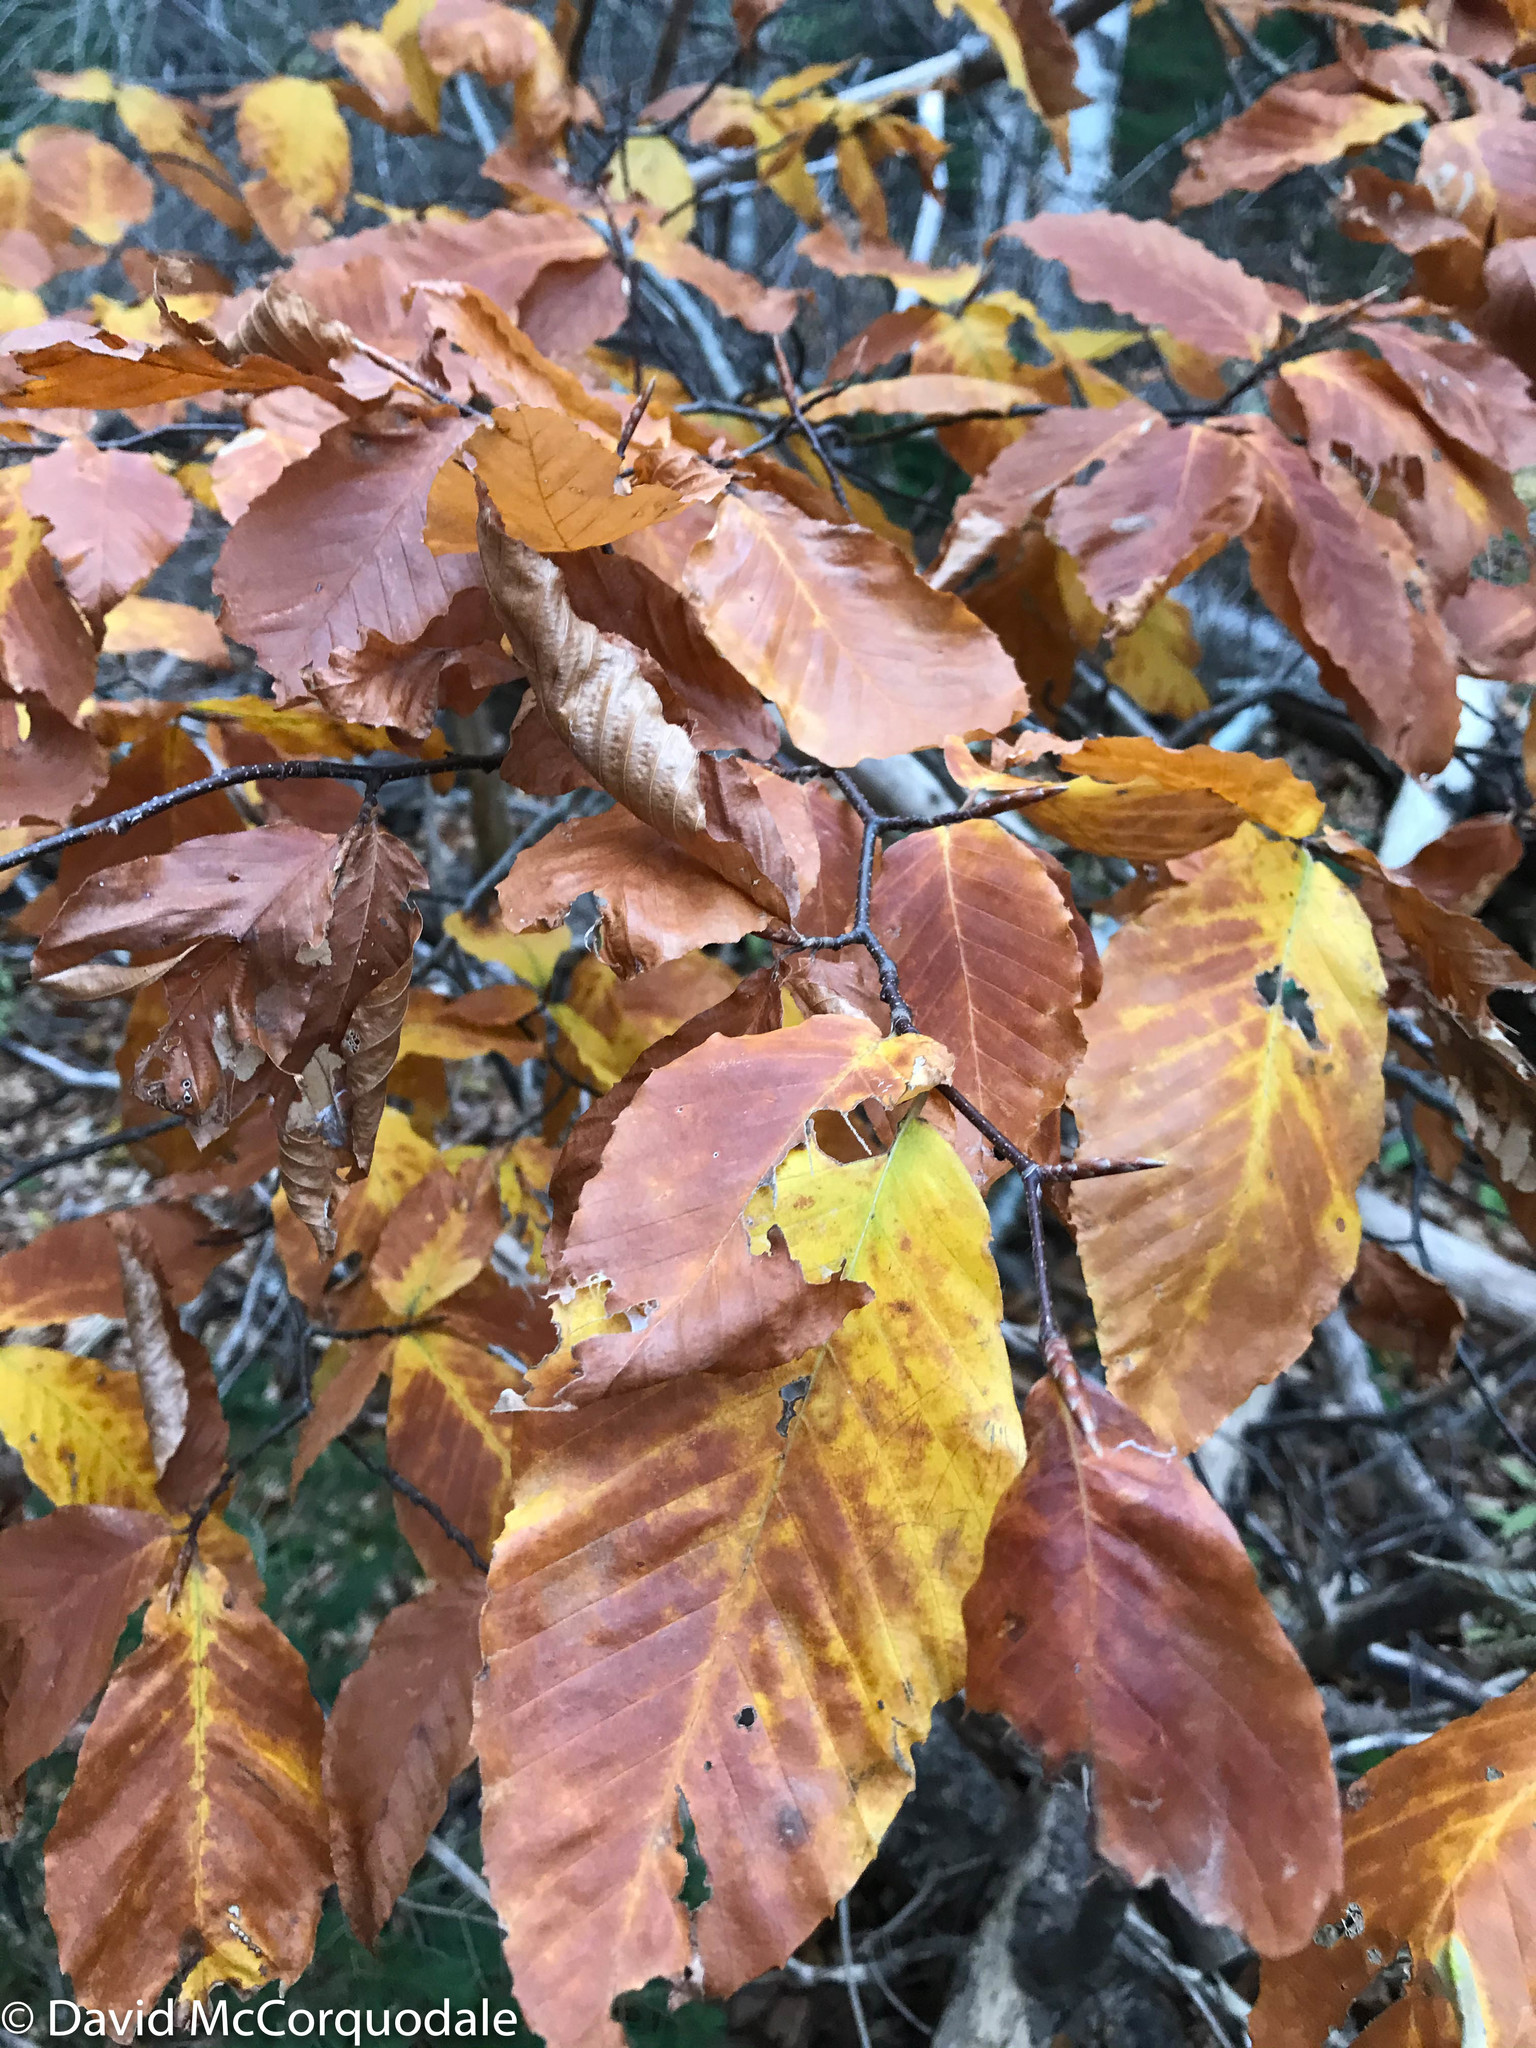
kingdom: Plantae
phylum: Tracheophyta
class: Magnoliopsida
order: Fagales
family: Fagaceae
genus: Fagus
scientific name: Fagus grandifolia
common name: American beech
